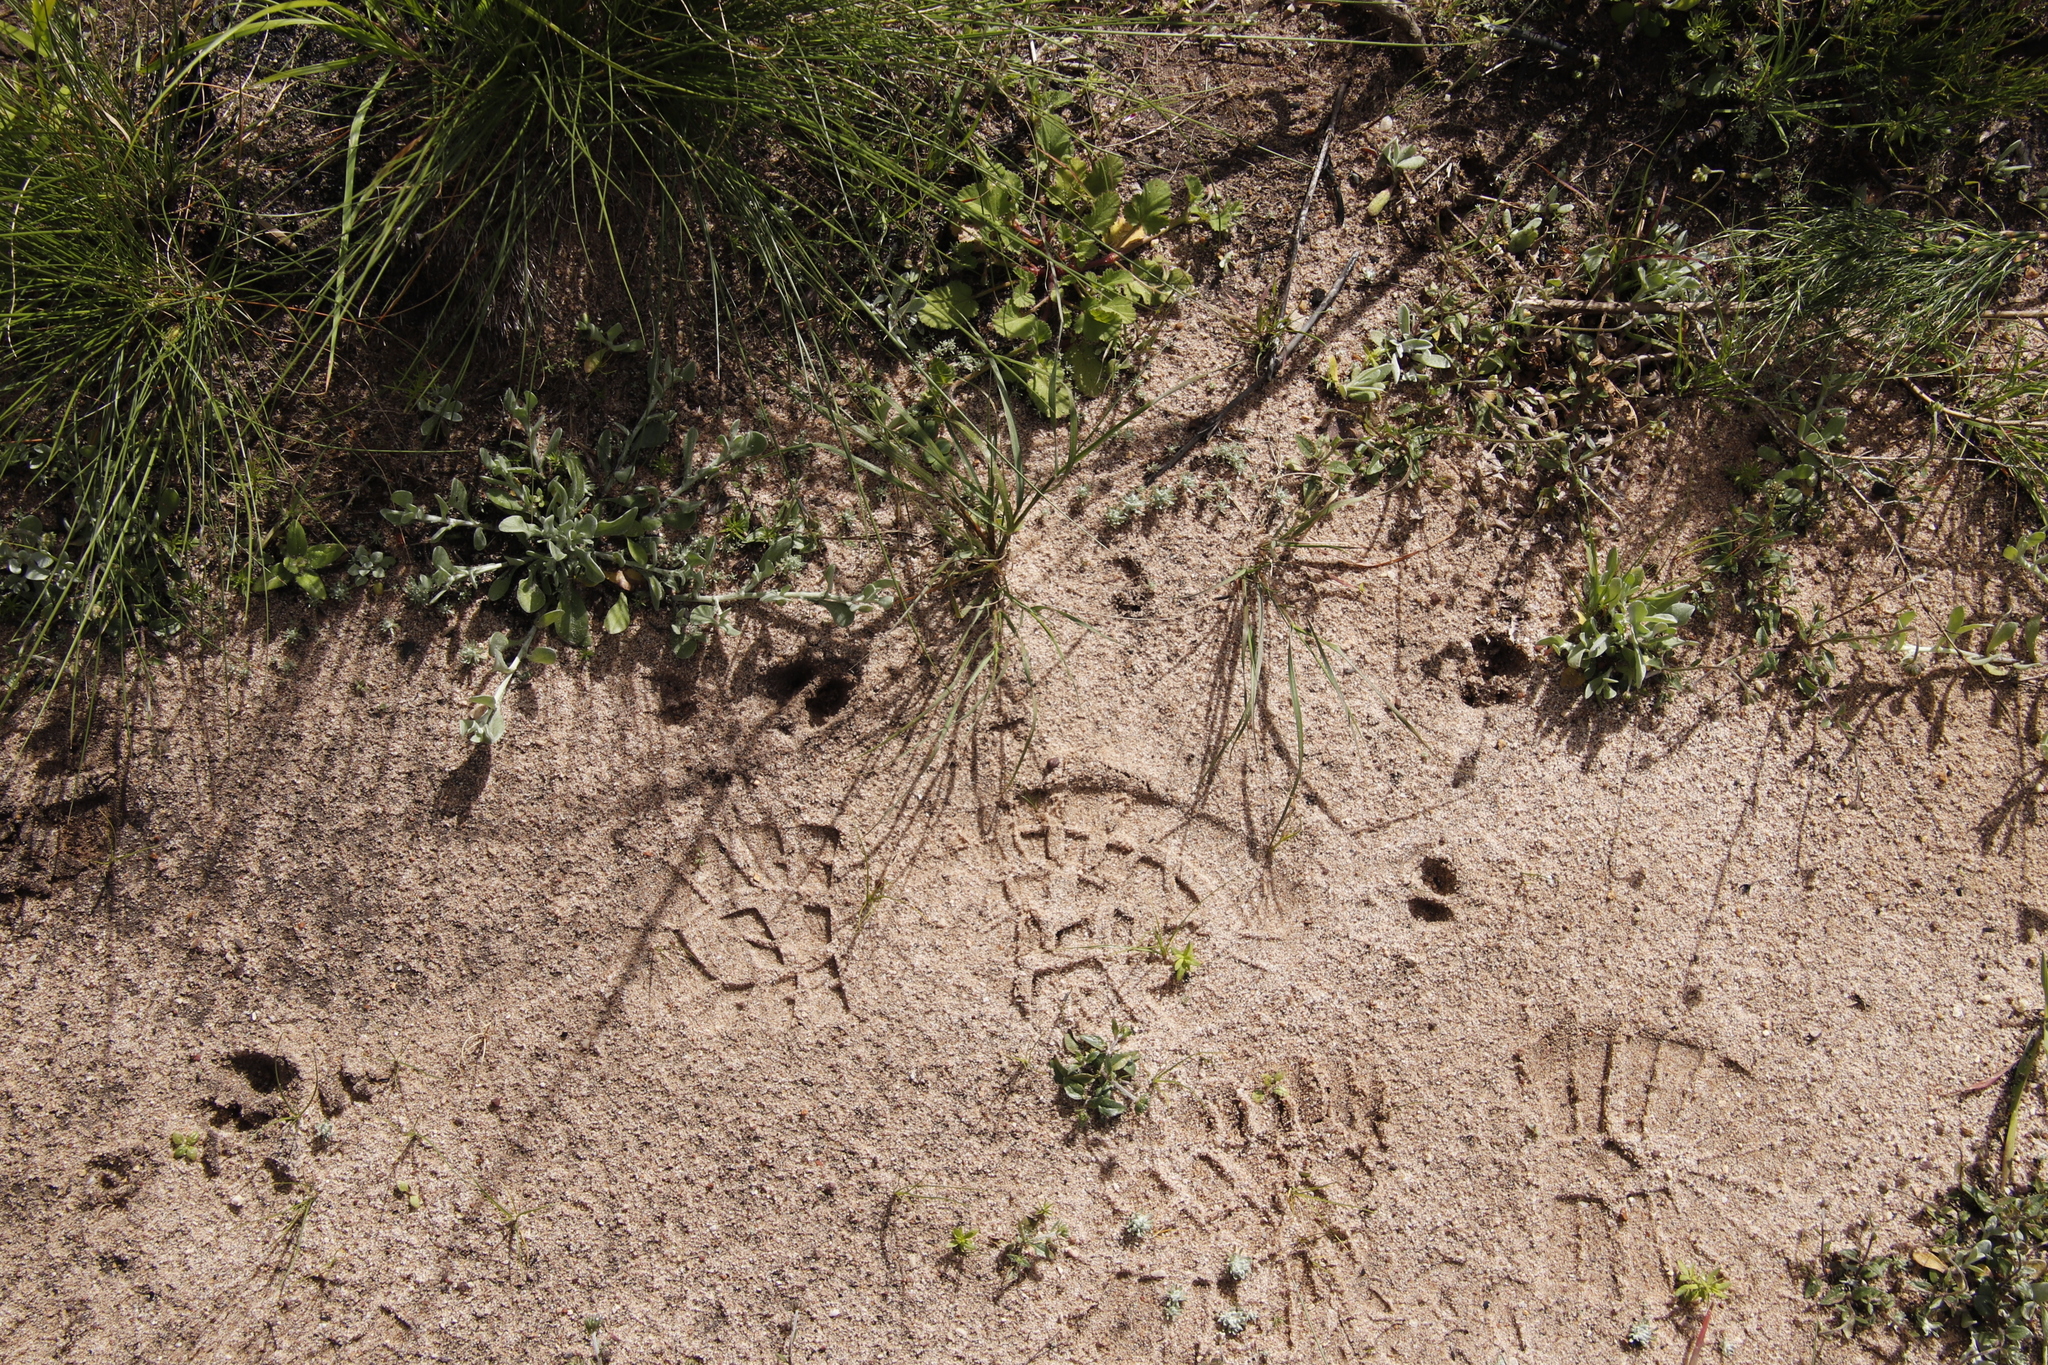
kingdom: Animalia
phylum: Chordata
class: Mammalia
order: Artiodactyla
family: Bovidae
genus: Oreotragus
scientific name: Oreotragus oreotragus
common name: Klipspringer
